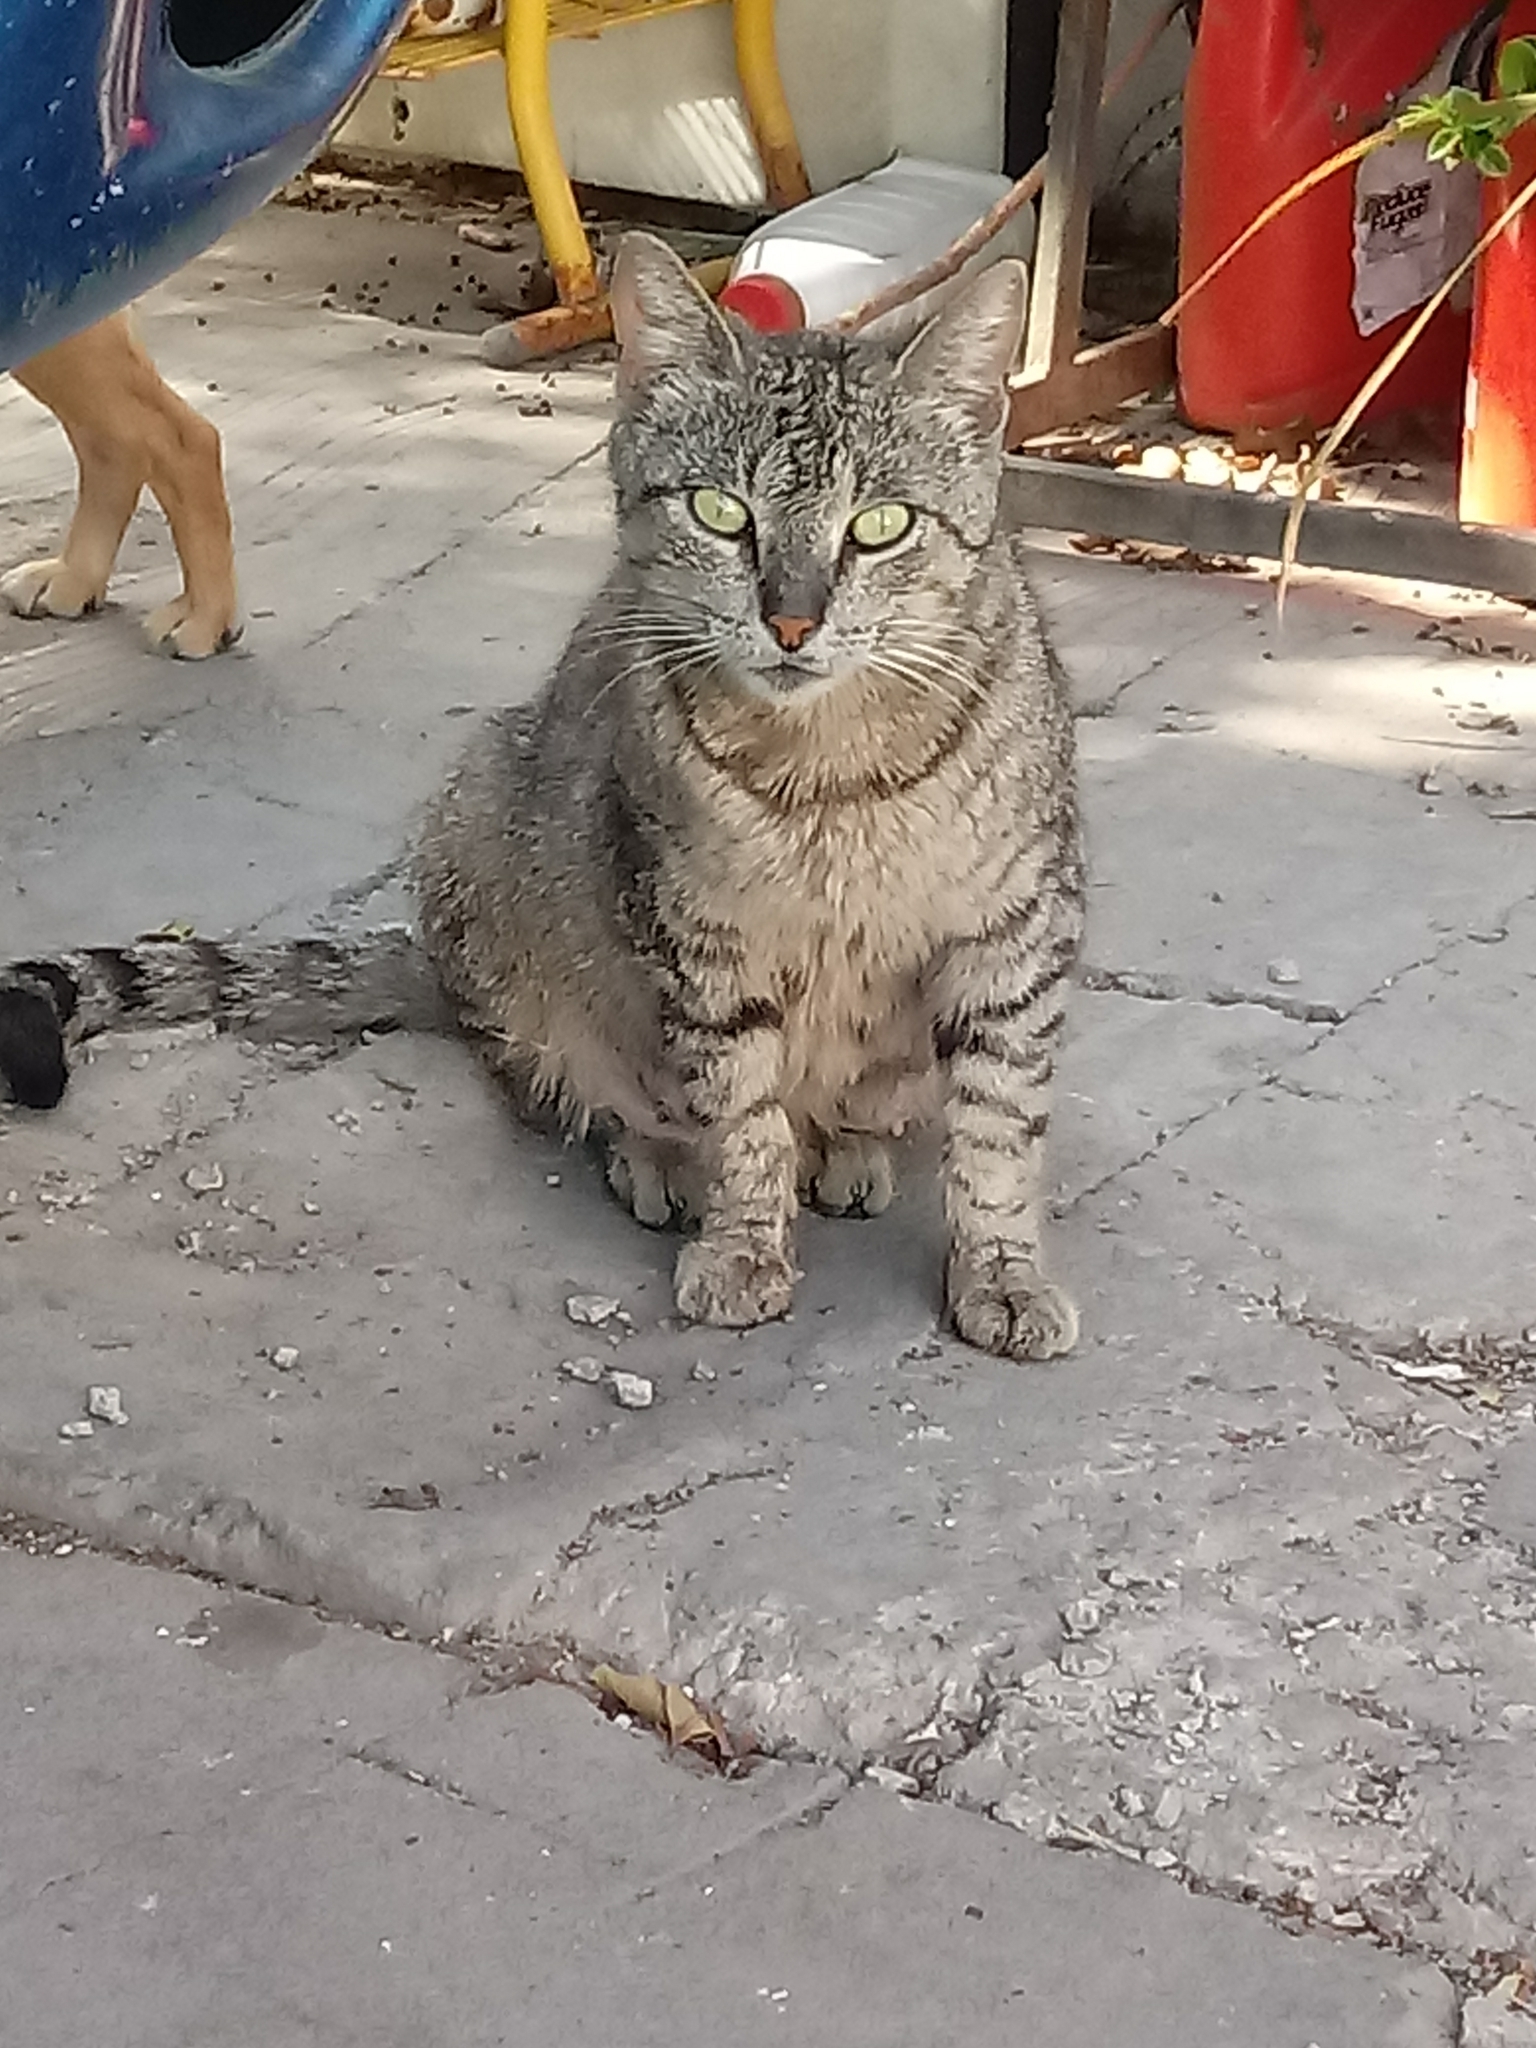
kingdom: Animalia
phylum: Chordata
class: Mammalia
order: Carnivora
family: Felidae
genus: Felis
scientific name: Felis catus
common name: Domestic cat
